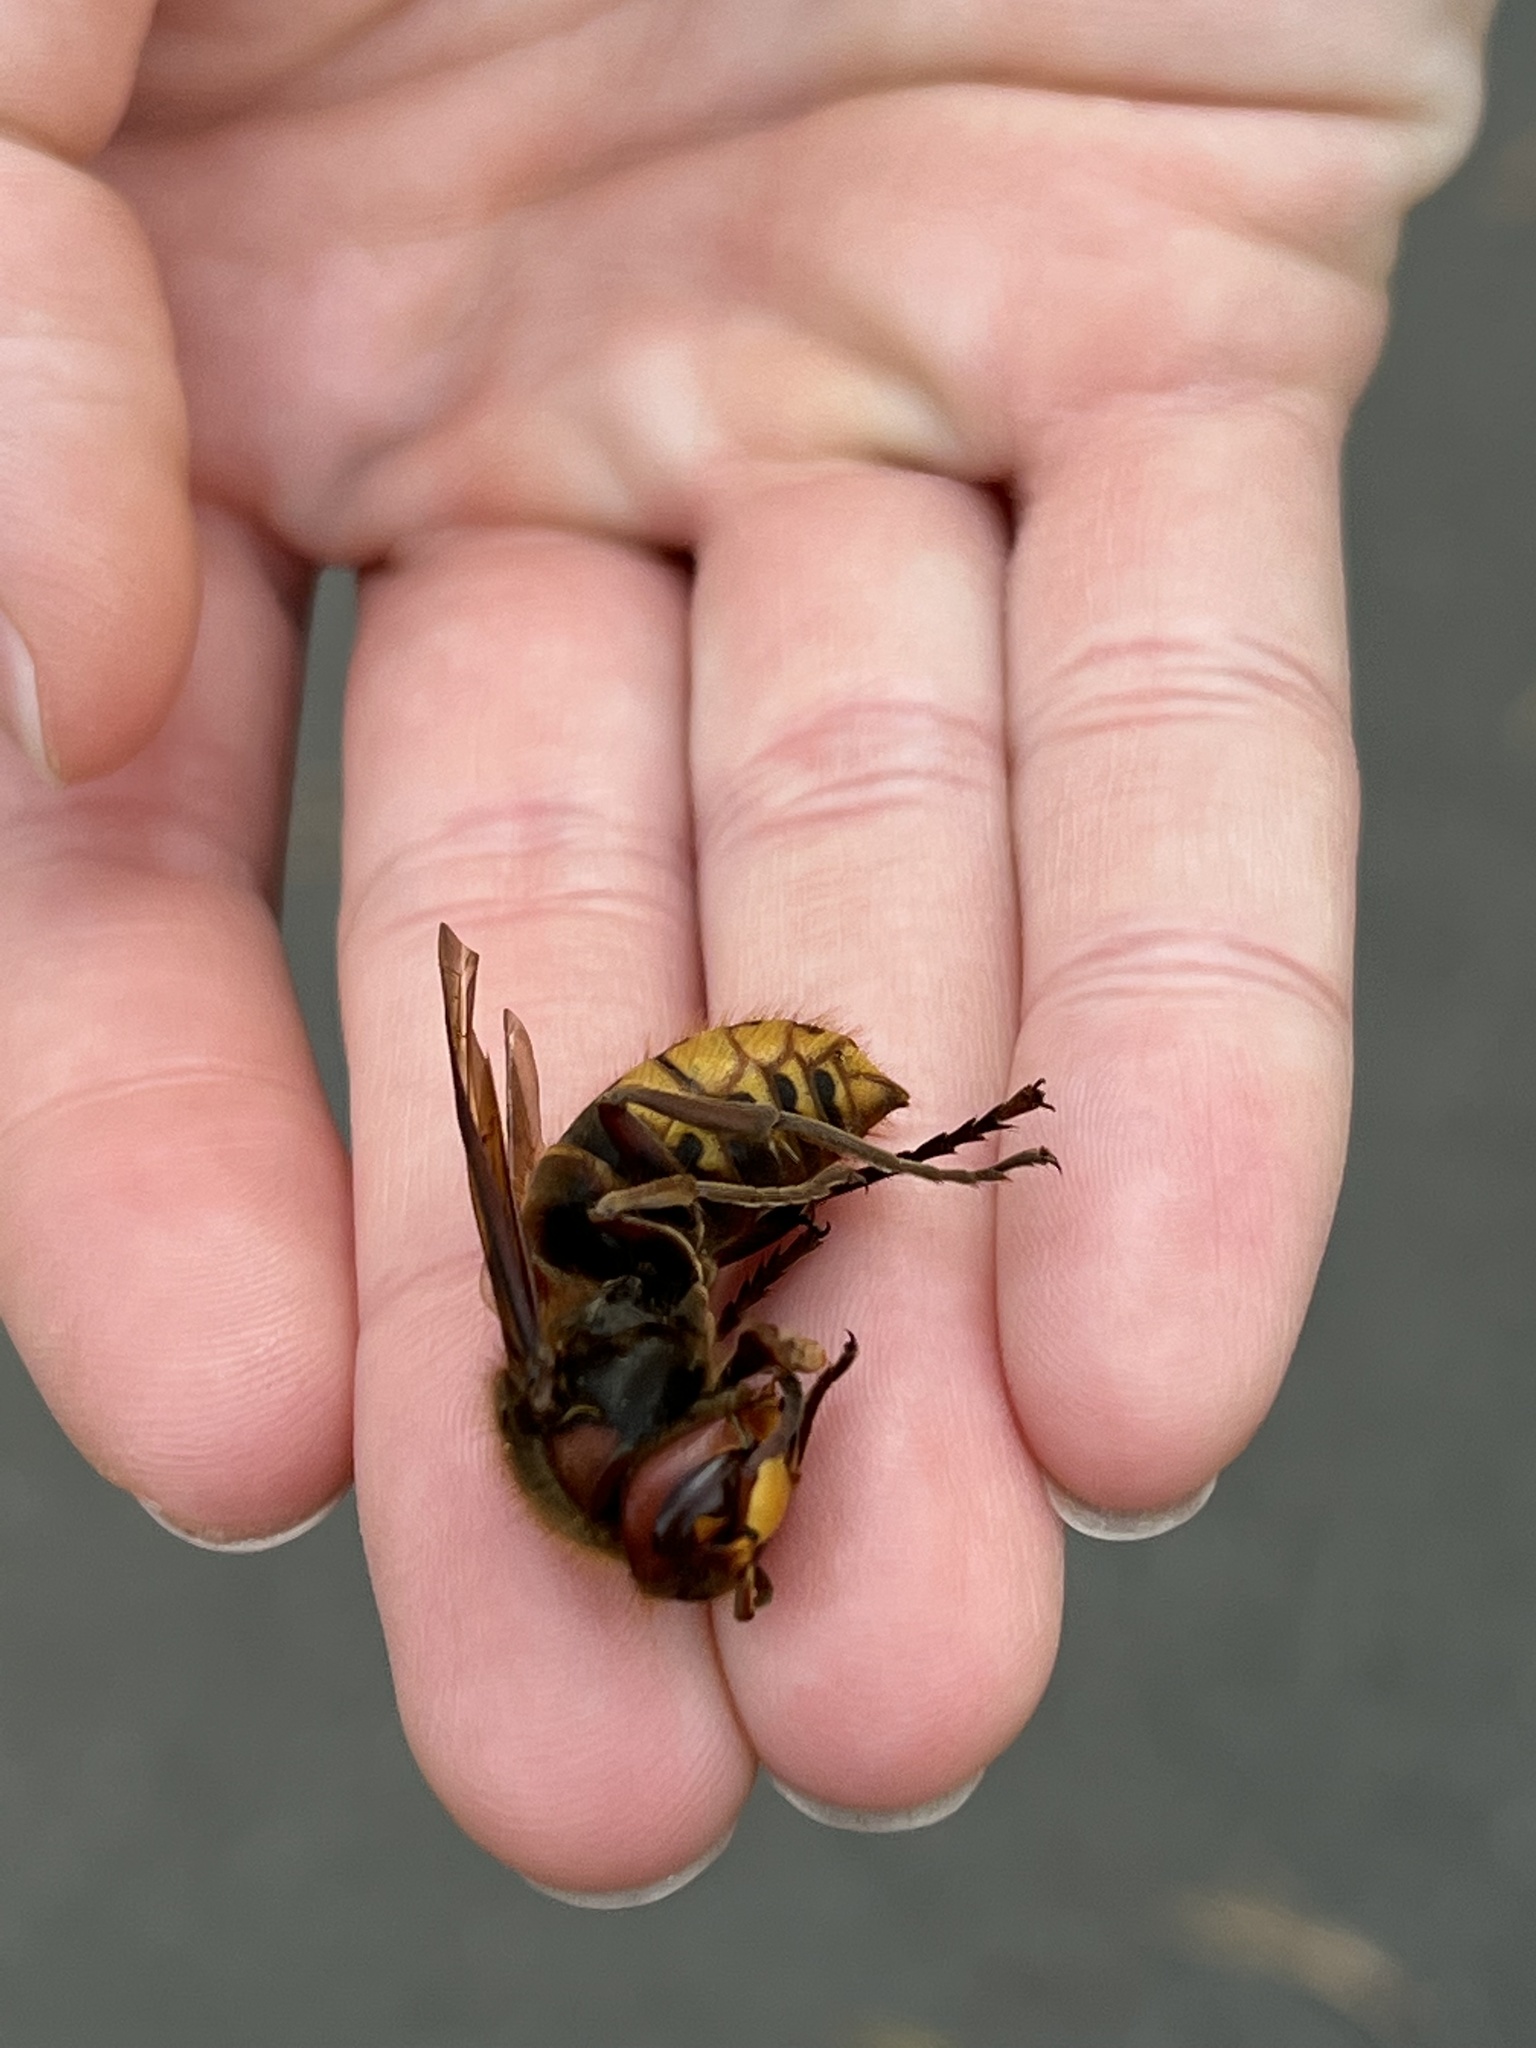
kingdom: Animalia
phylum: Arthropoda
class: Insecta
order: Hymenoptera
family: Vespidae
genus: Vespa
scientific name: Vespa crabro
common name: Hornet
